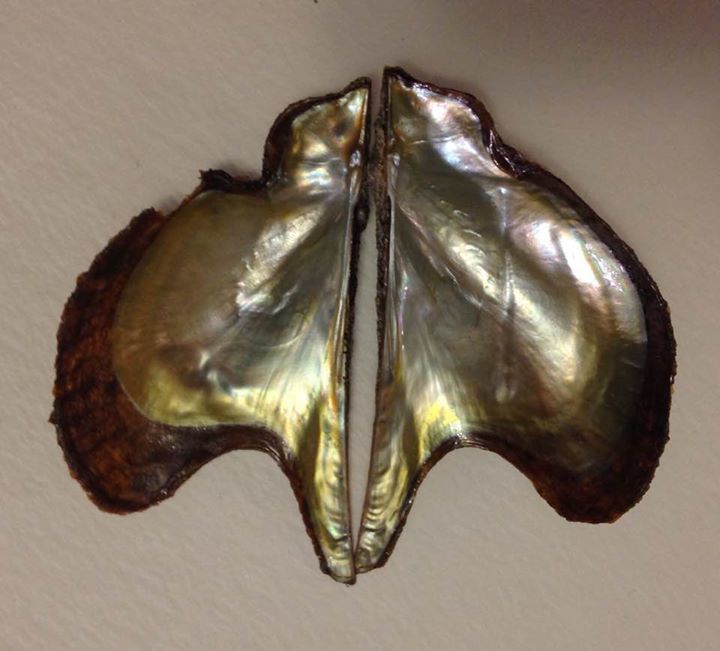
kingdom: Animalia
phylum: Mollusca
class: Bivalvia
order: Ostreida
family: Pteriidae
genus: Pteria
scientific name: Pteria colymbus
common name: Atlantic wing-oyster
